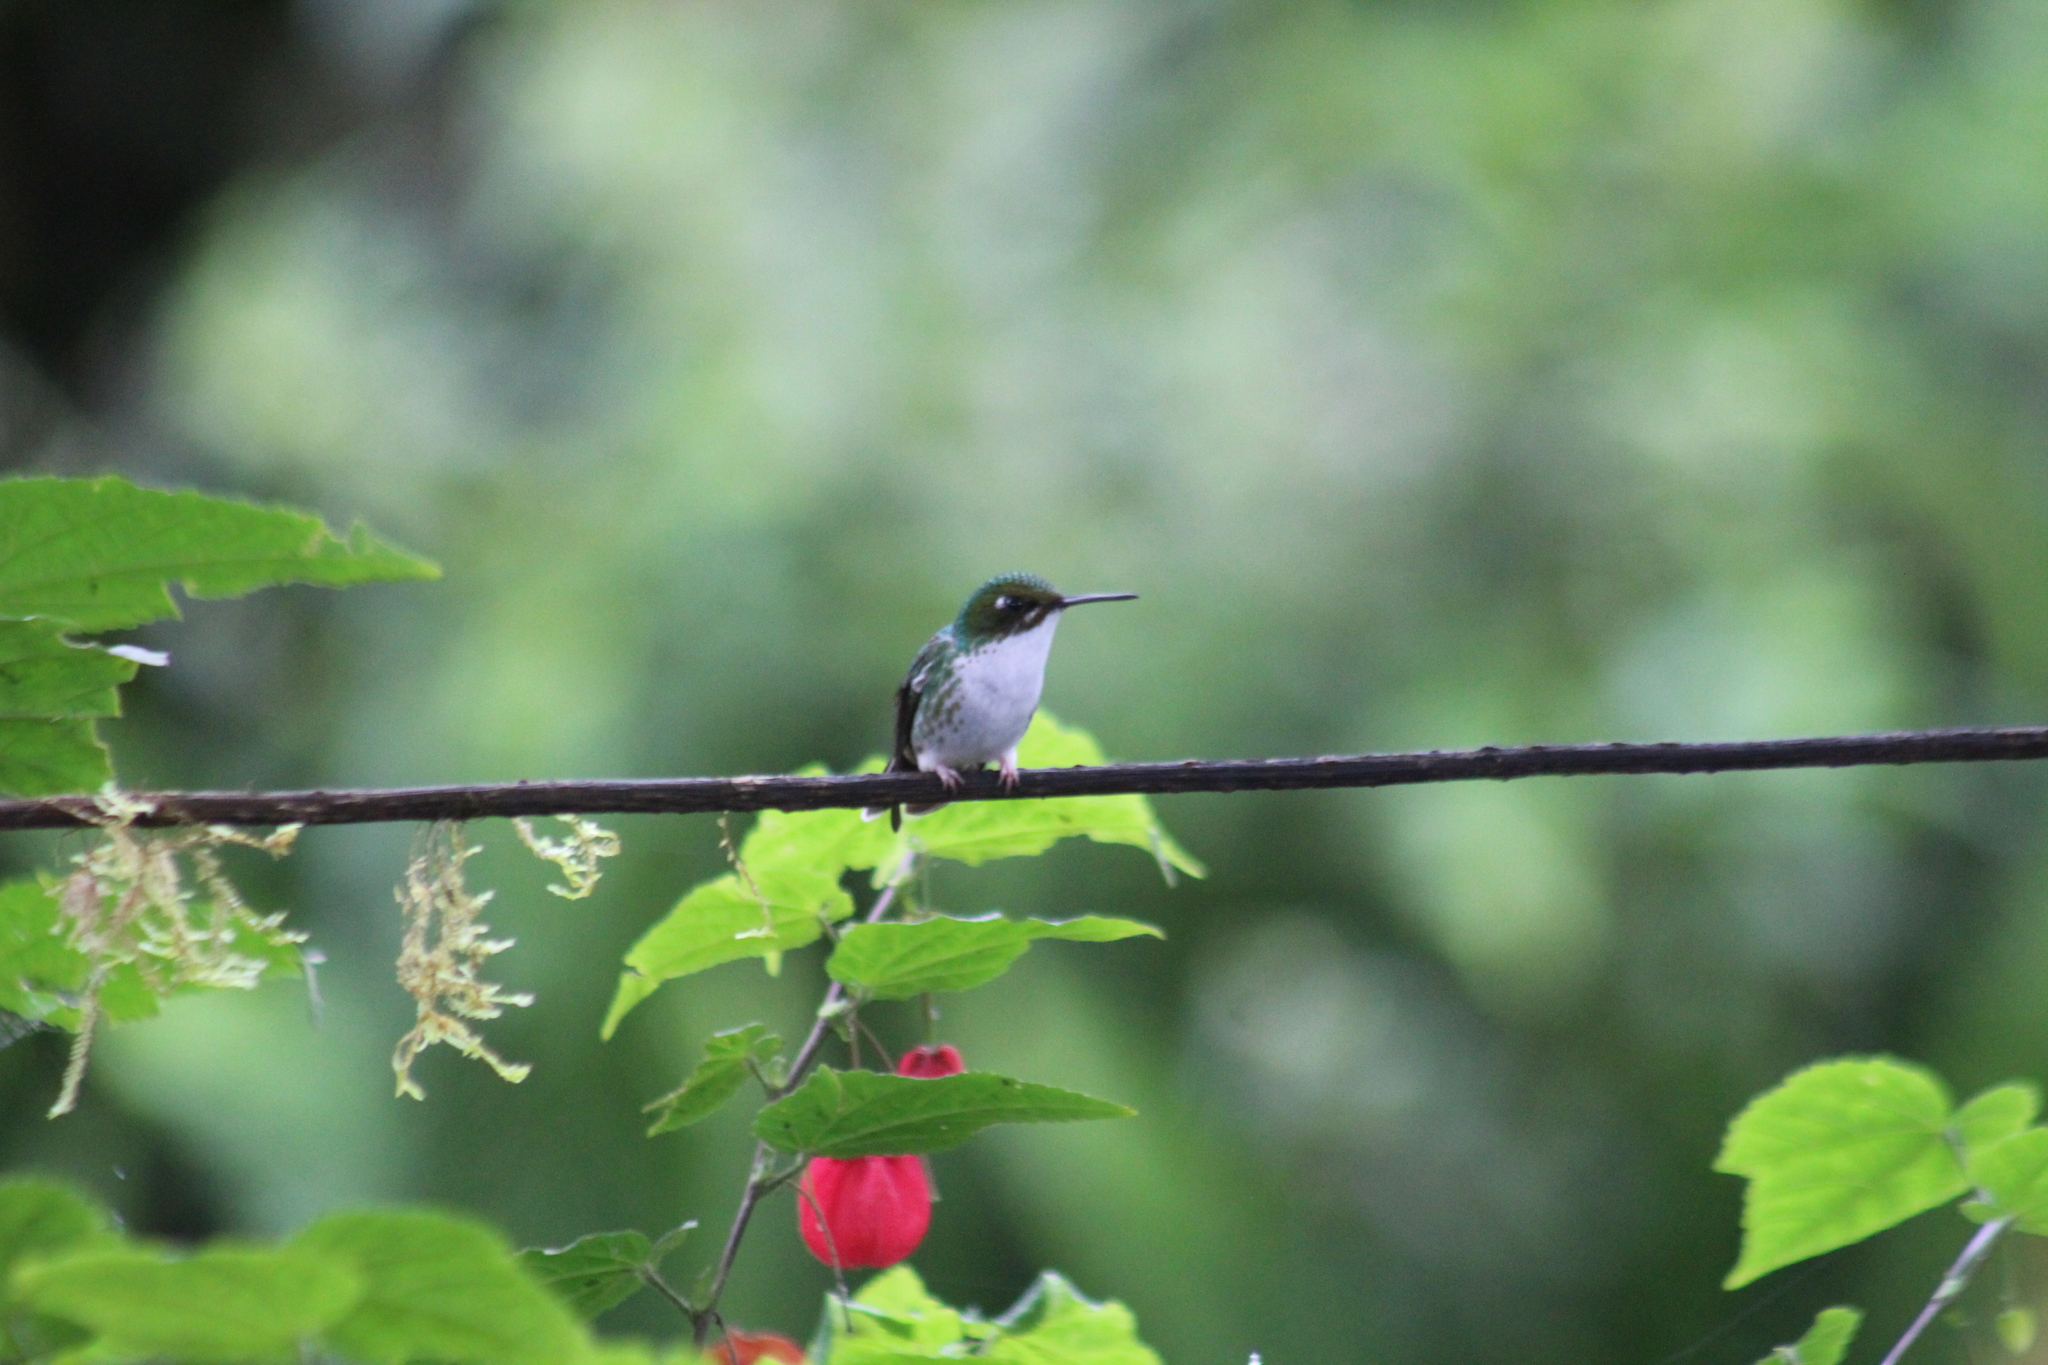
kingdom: Animalia
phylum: Chordata
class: Aves
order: Apodiformes
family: Trochilidae
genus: Ocreatus
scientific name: Ocreatus underwoodii
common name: Booted racket-tail
